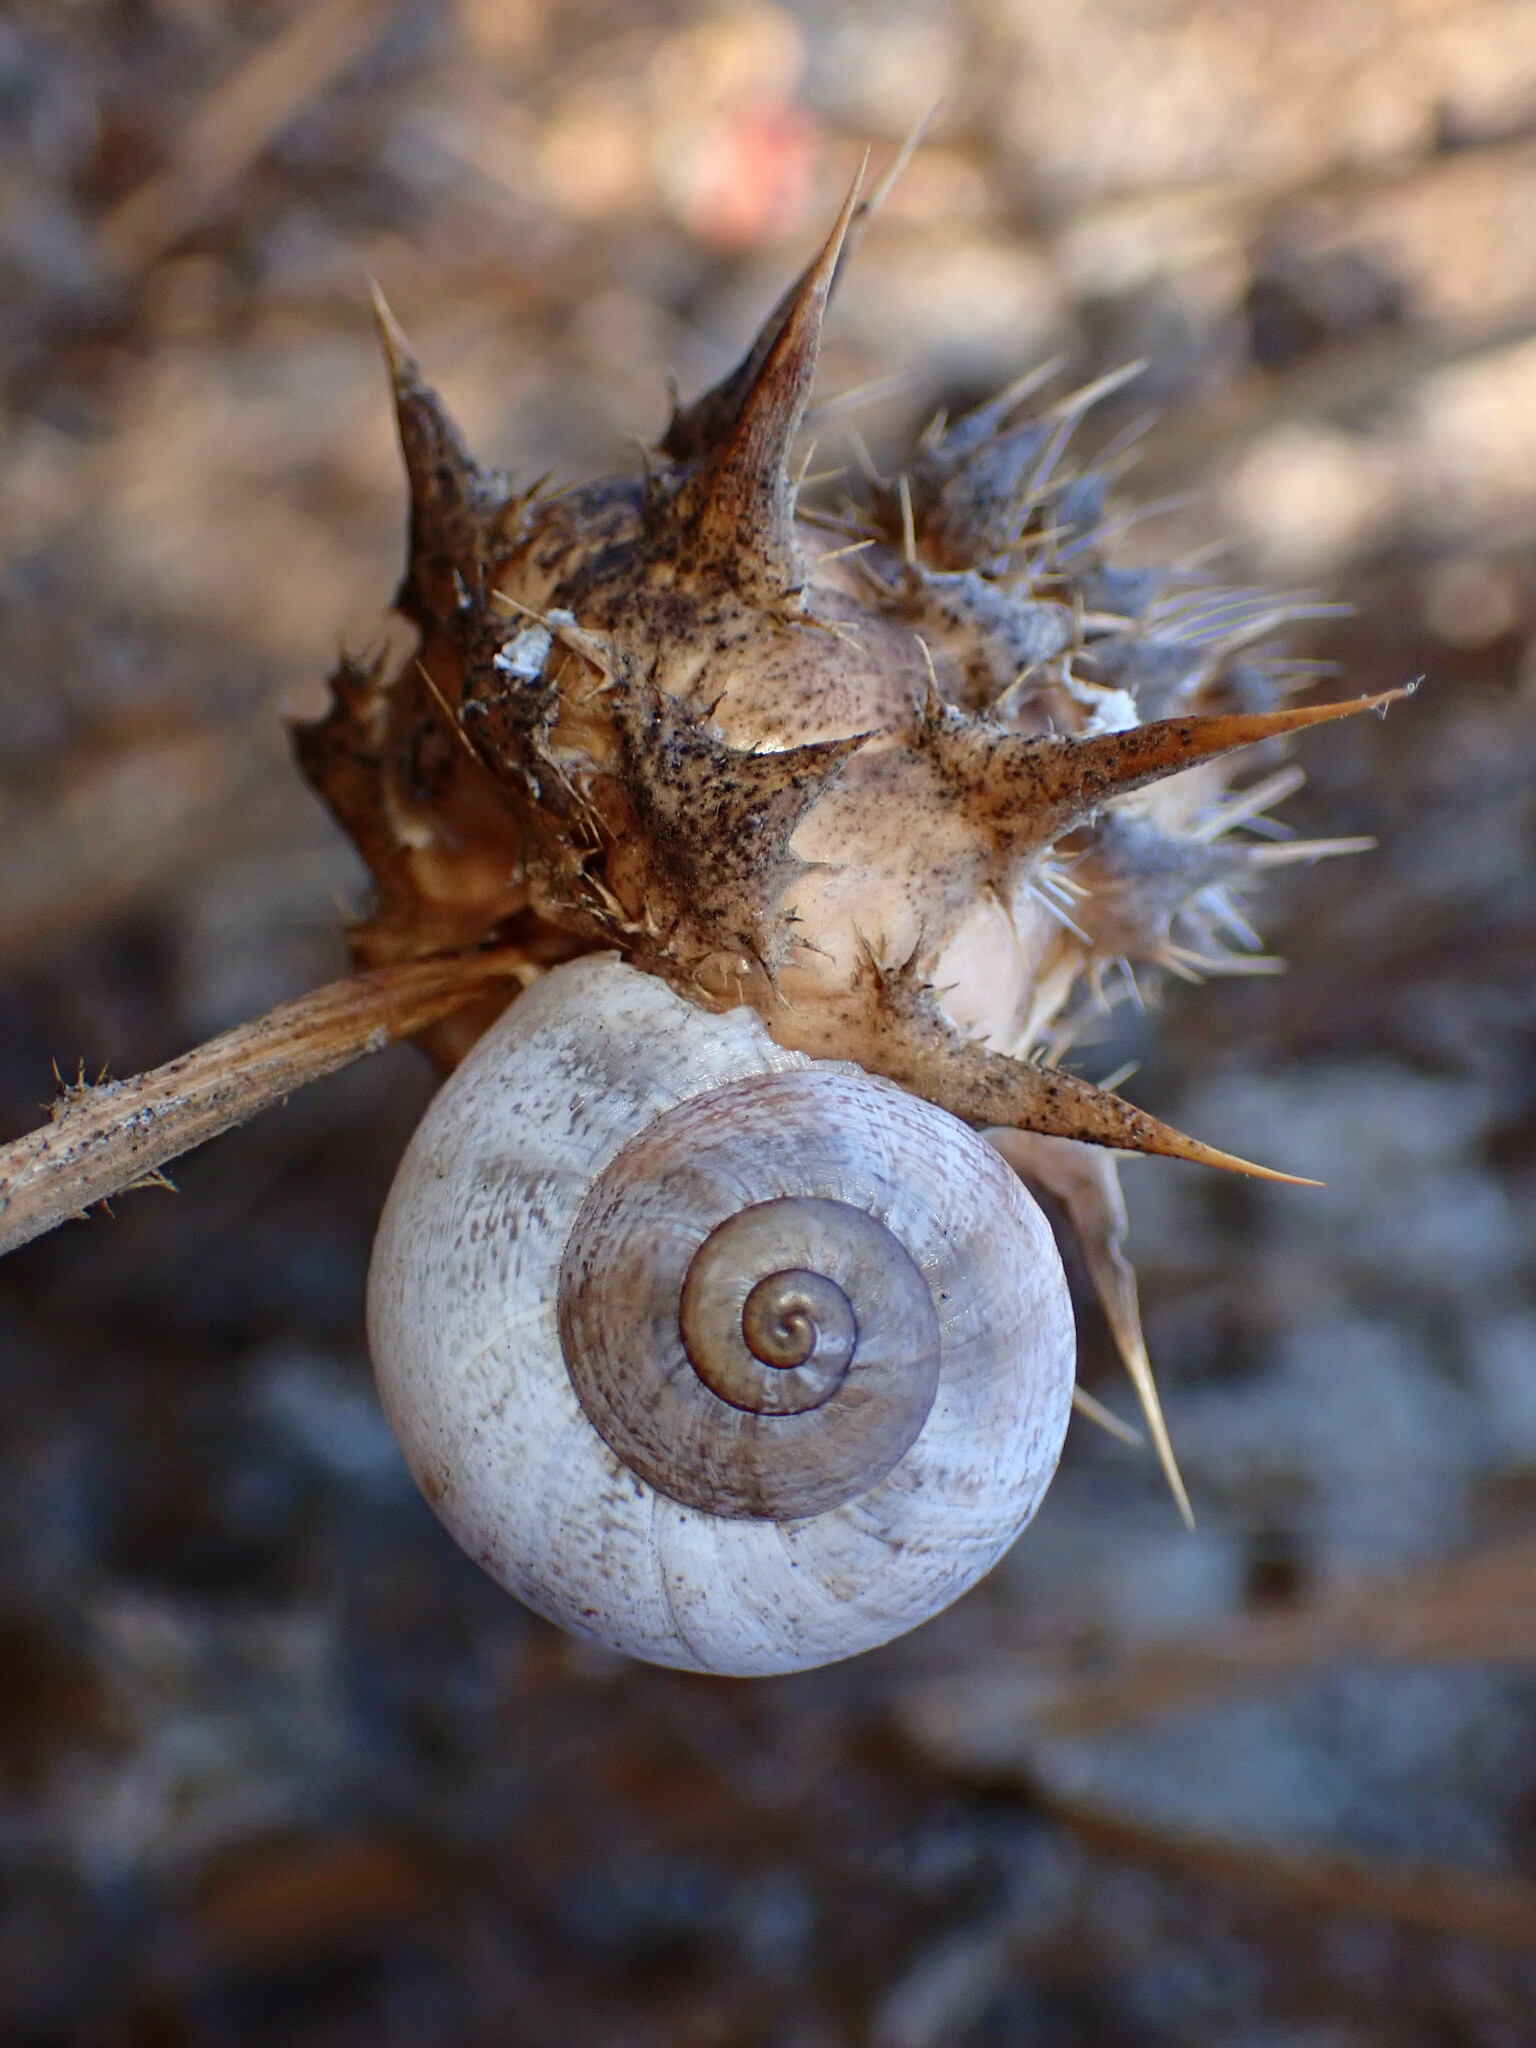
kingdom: Animalia
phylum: Mollusca
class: Gastropoda
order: Stylommatophora
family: Helicidae
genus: Otala
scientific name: Otala lactea
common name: Milk snail
